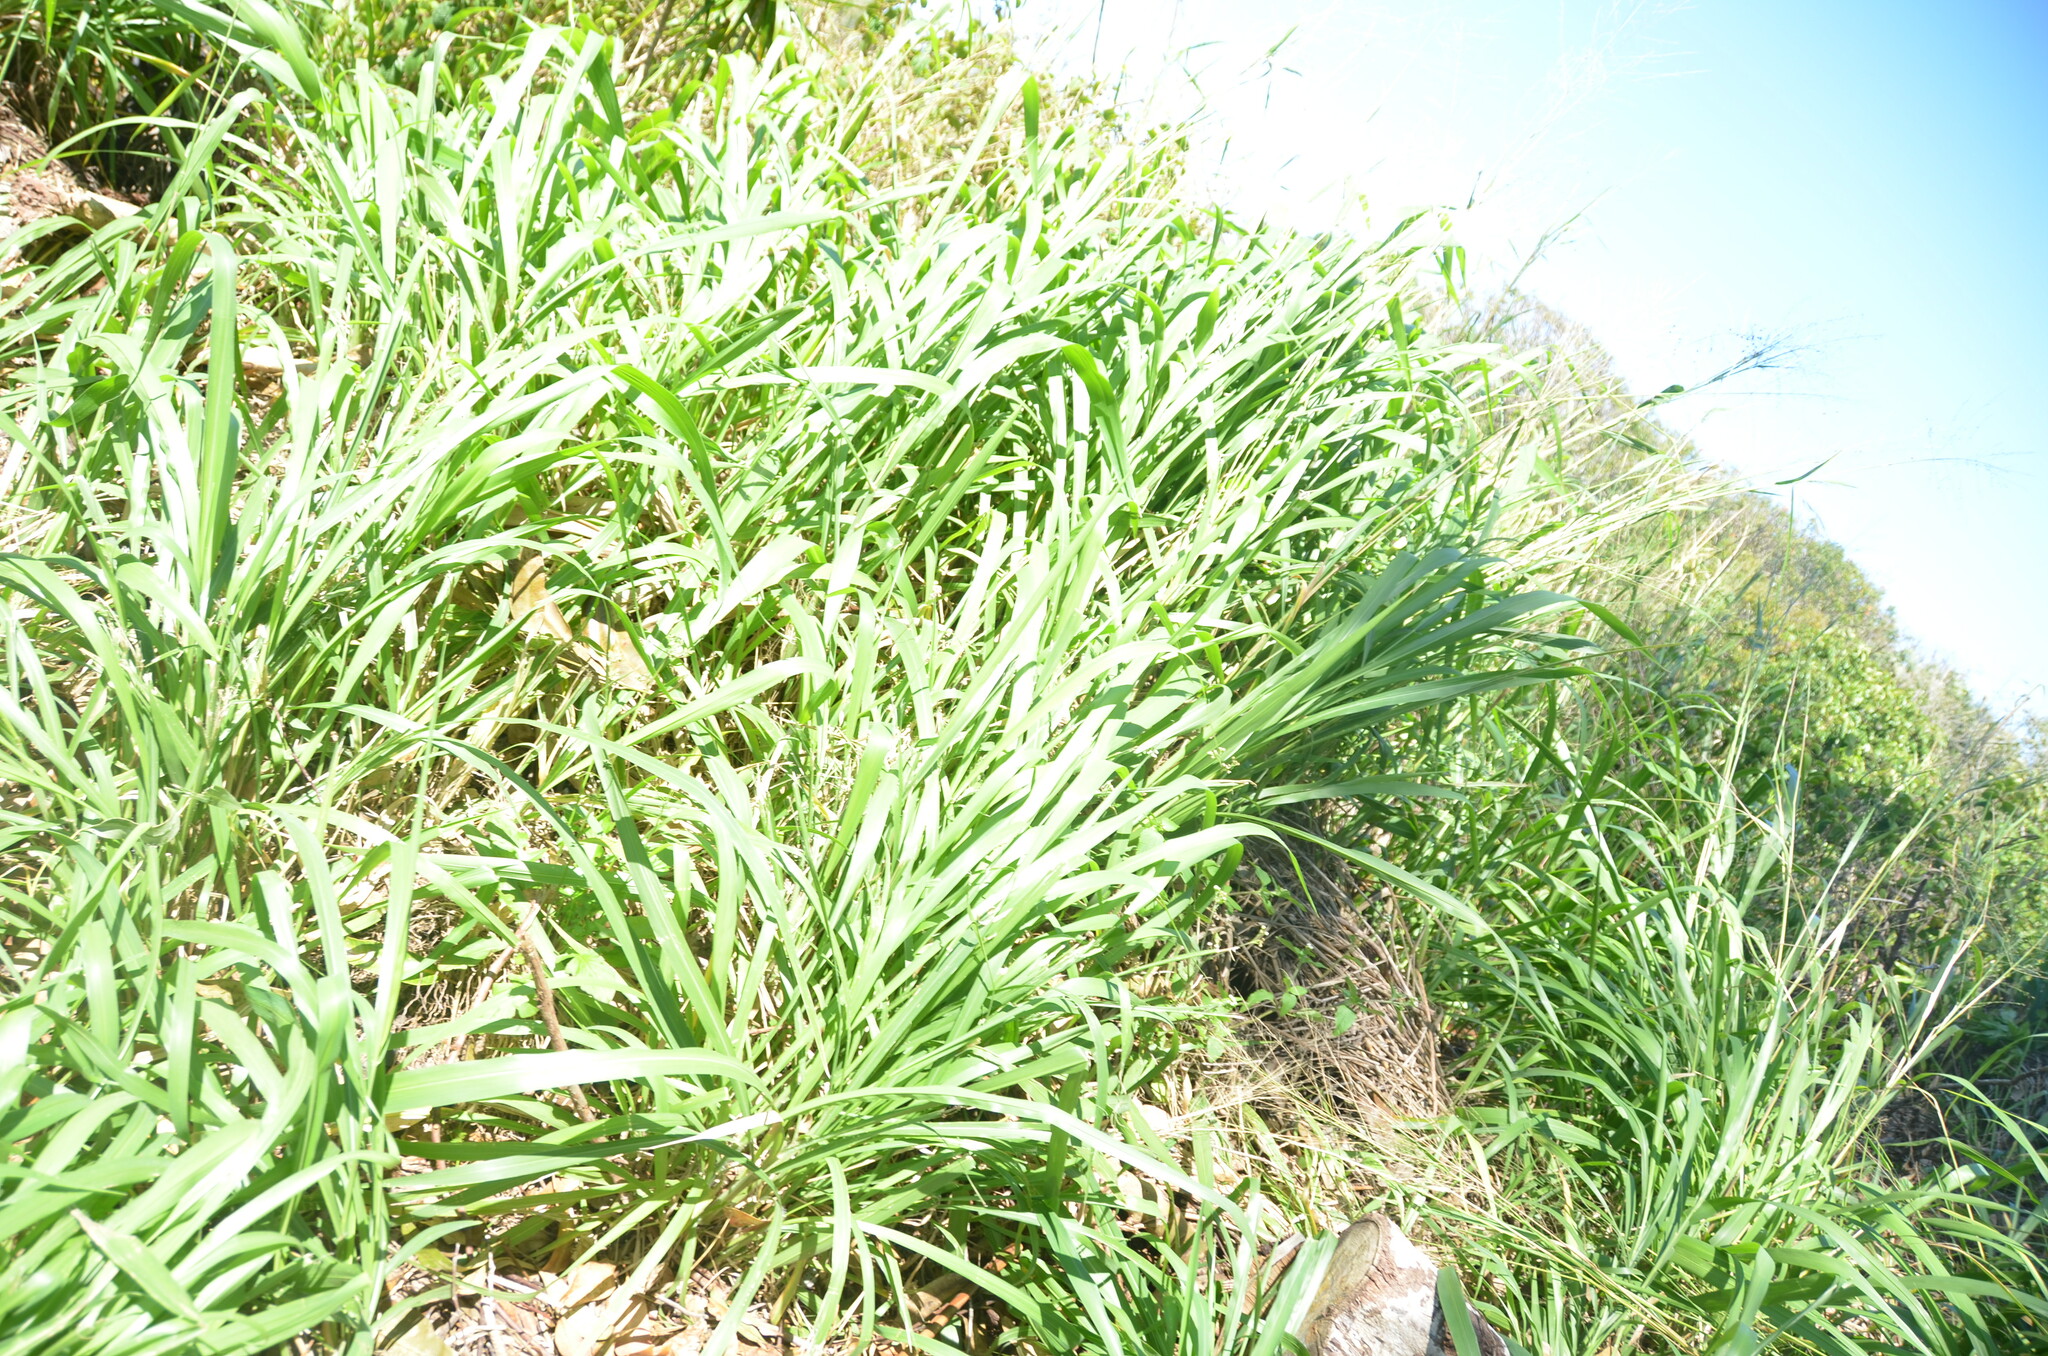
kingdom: Plantae
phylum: Tracheophyta
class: Liliopsida
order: Poales
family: Poaceae
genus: Megathyrsus
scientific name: Megathyrsus maximus
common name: Guineagrass
